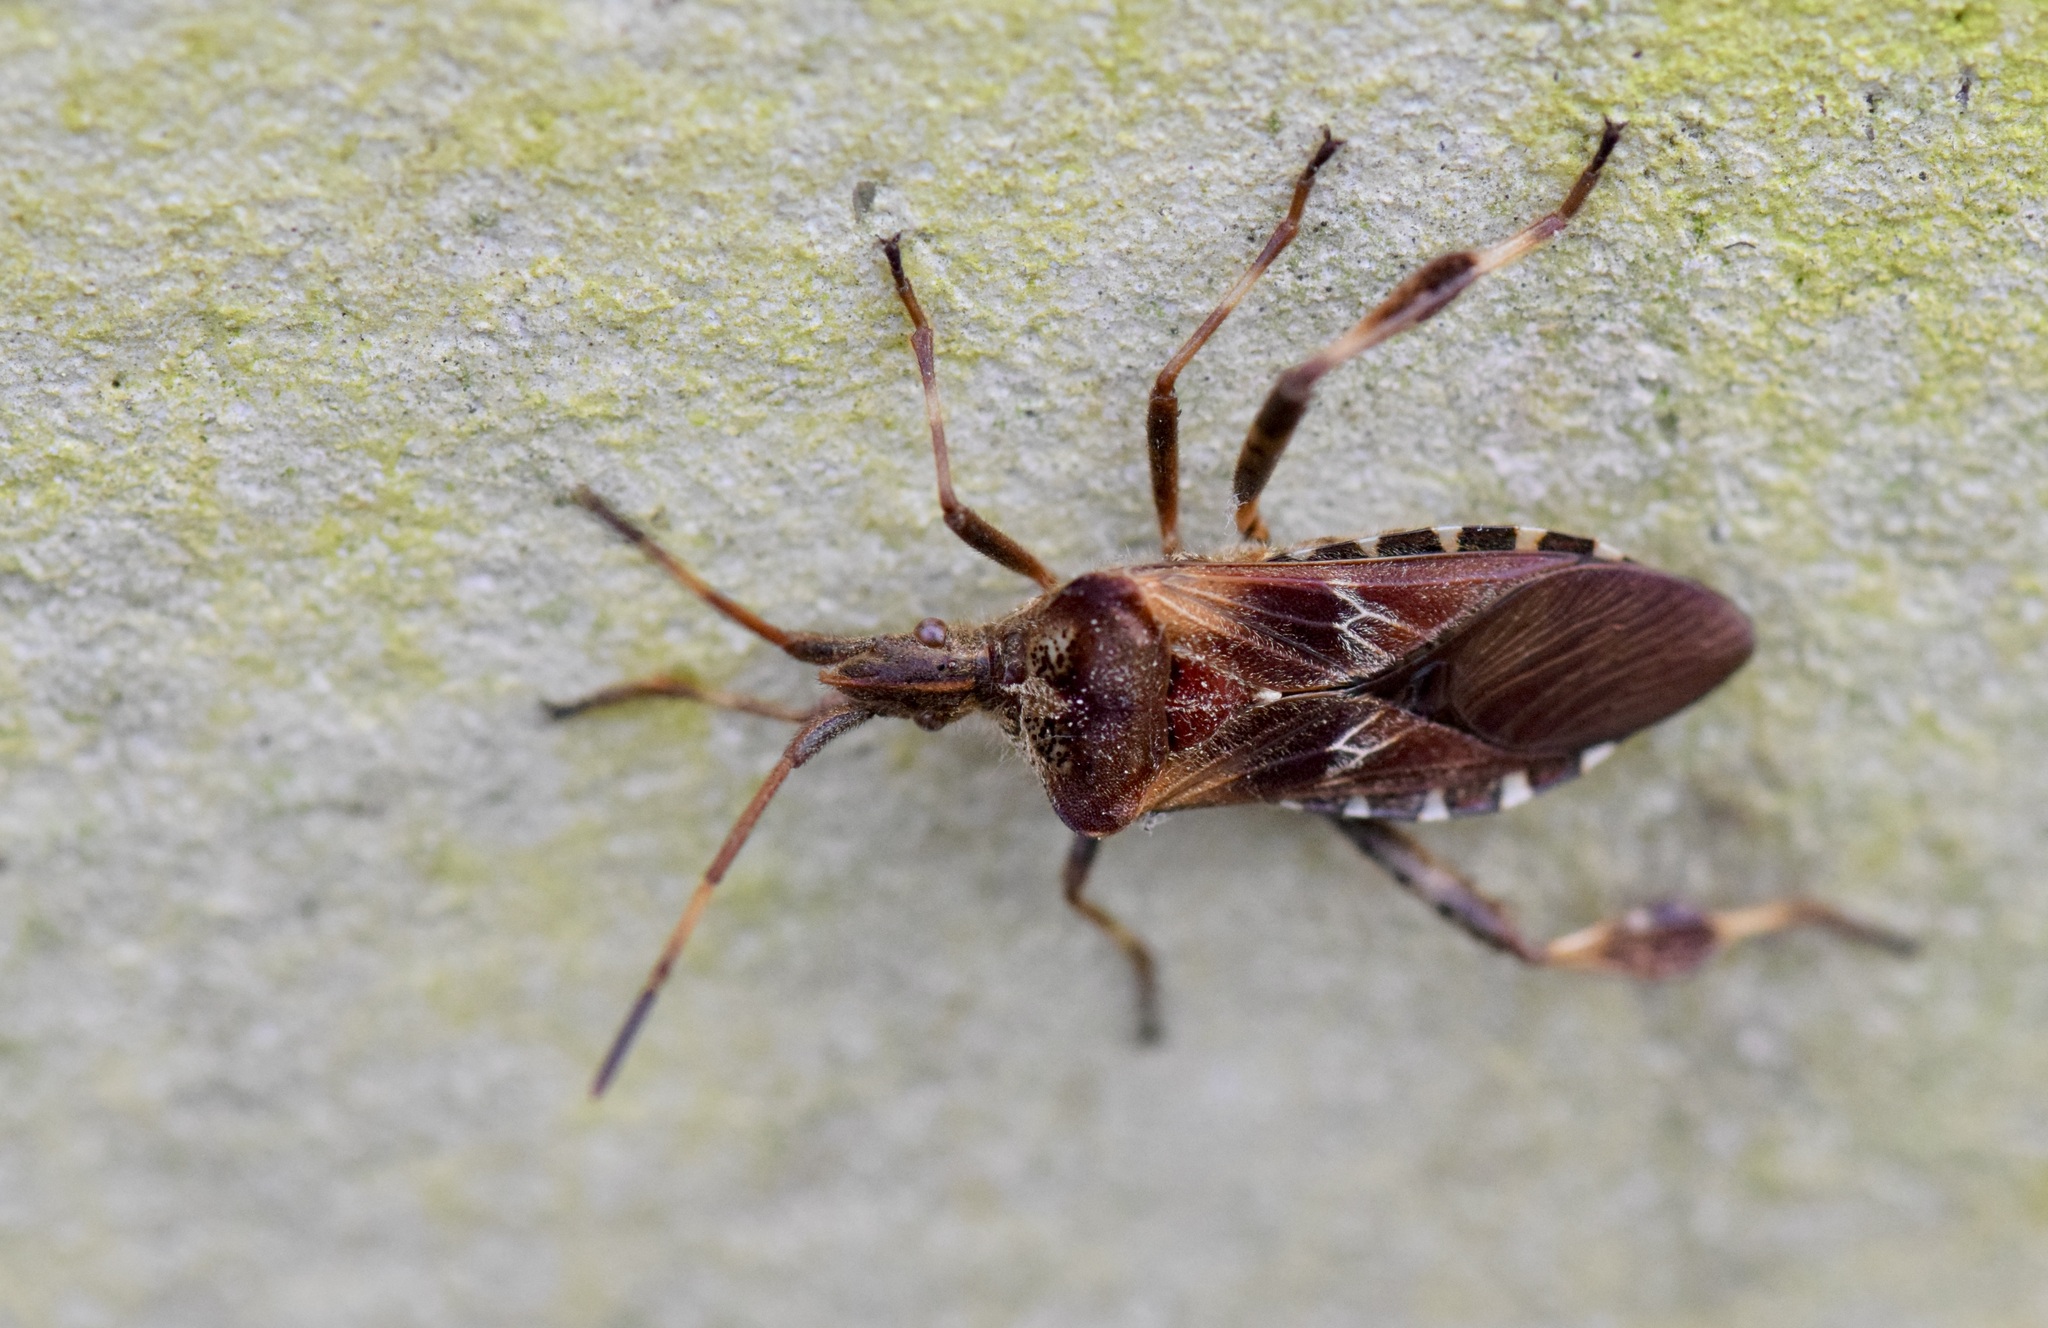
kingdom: Animalia
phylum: Arthropoda
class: Insecta
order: Hemiptera
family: Coreidae
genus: Leptoglossus
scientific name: Leptoglossus occidentalis
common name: Western conifer-seed bug
